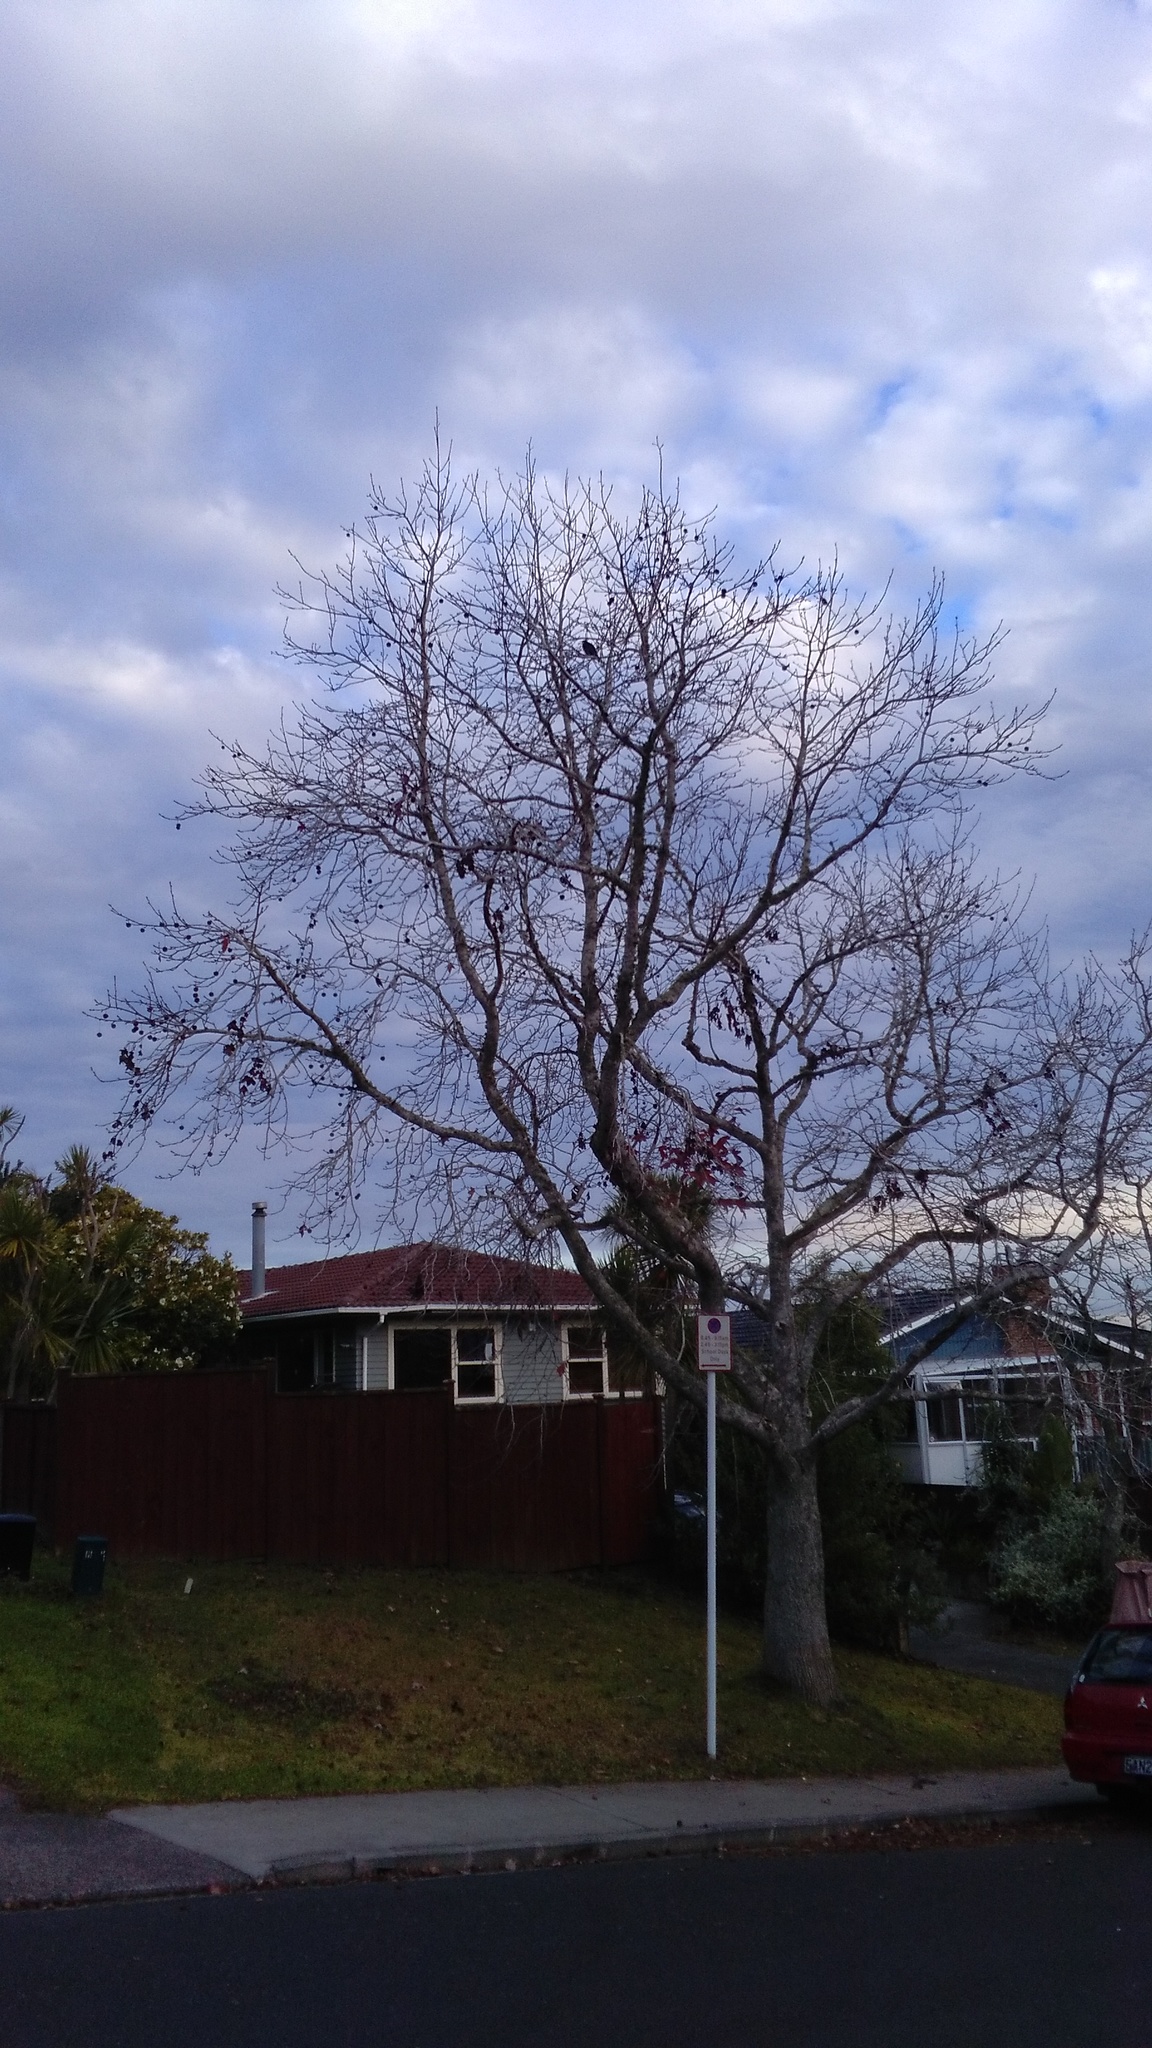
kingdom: Animalia
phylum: Chordata
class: Aves
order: Passeriformes
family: Meliphagidae
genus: Prosthemadera
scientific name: Prosthemadera novaeseelandiae
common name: Tui
